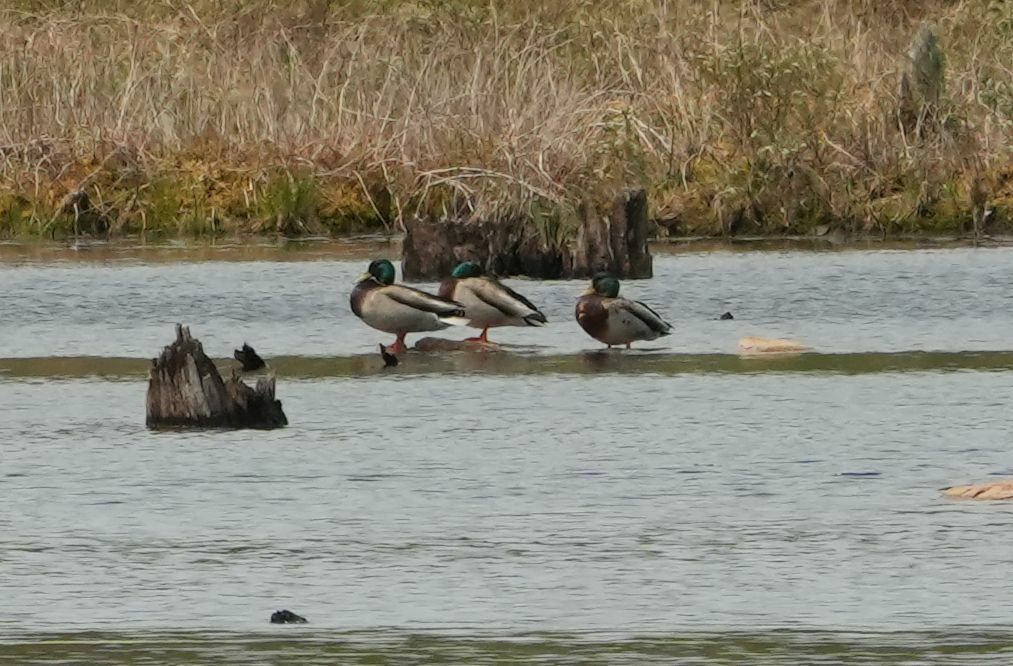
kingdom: Animalia
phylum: Chordata
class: Aves
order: Anseriformes
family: Anatidae
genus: Anas
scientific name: Anas platyrhynchos
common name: Mallard
